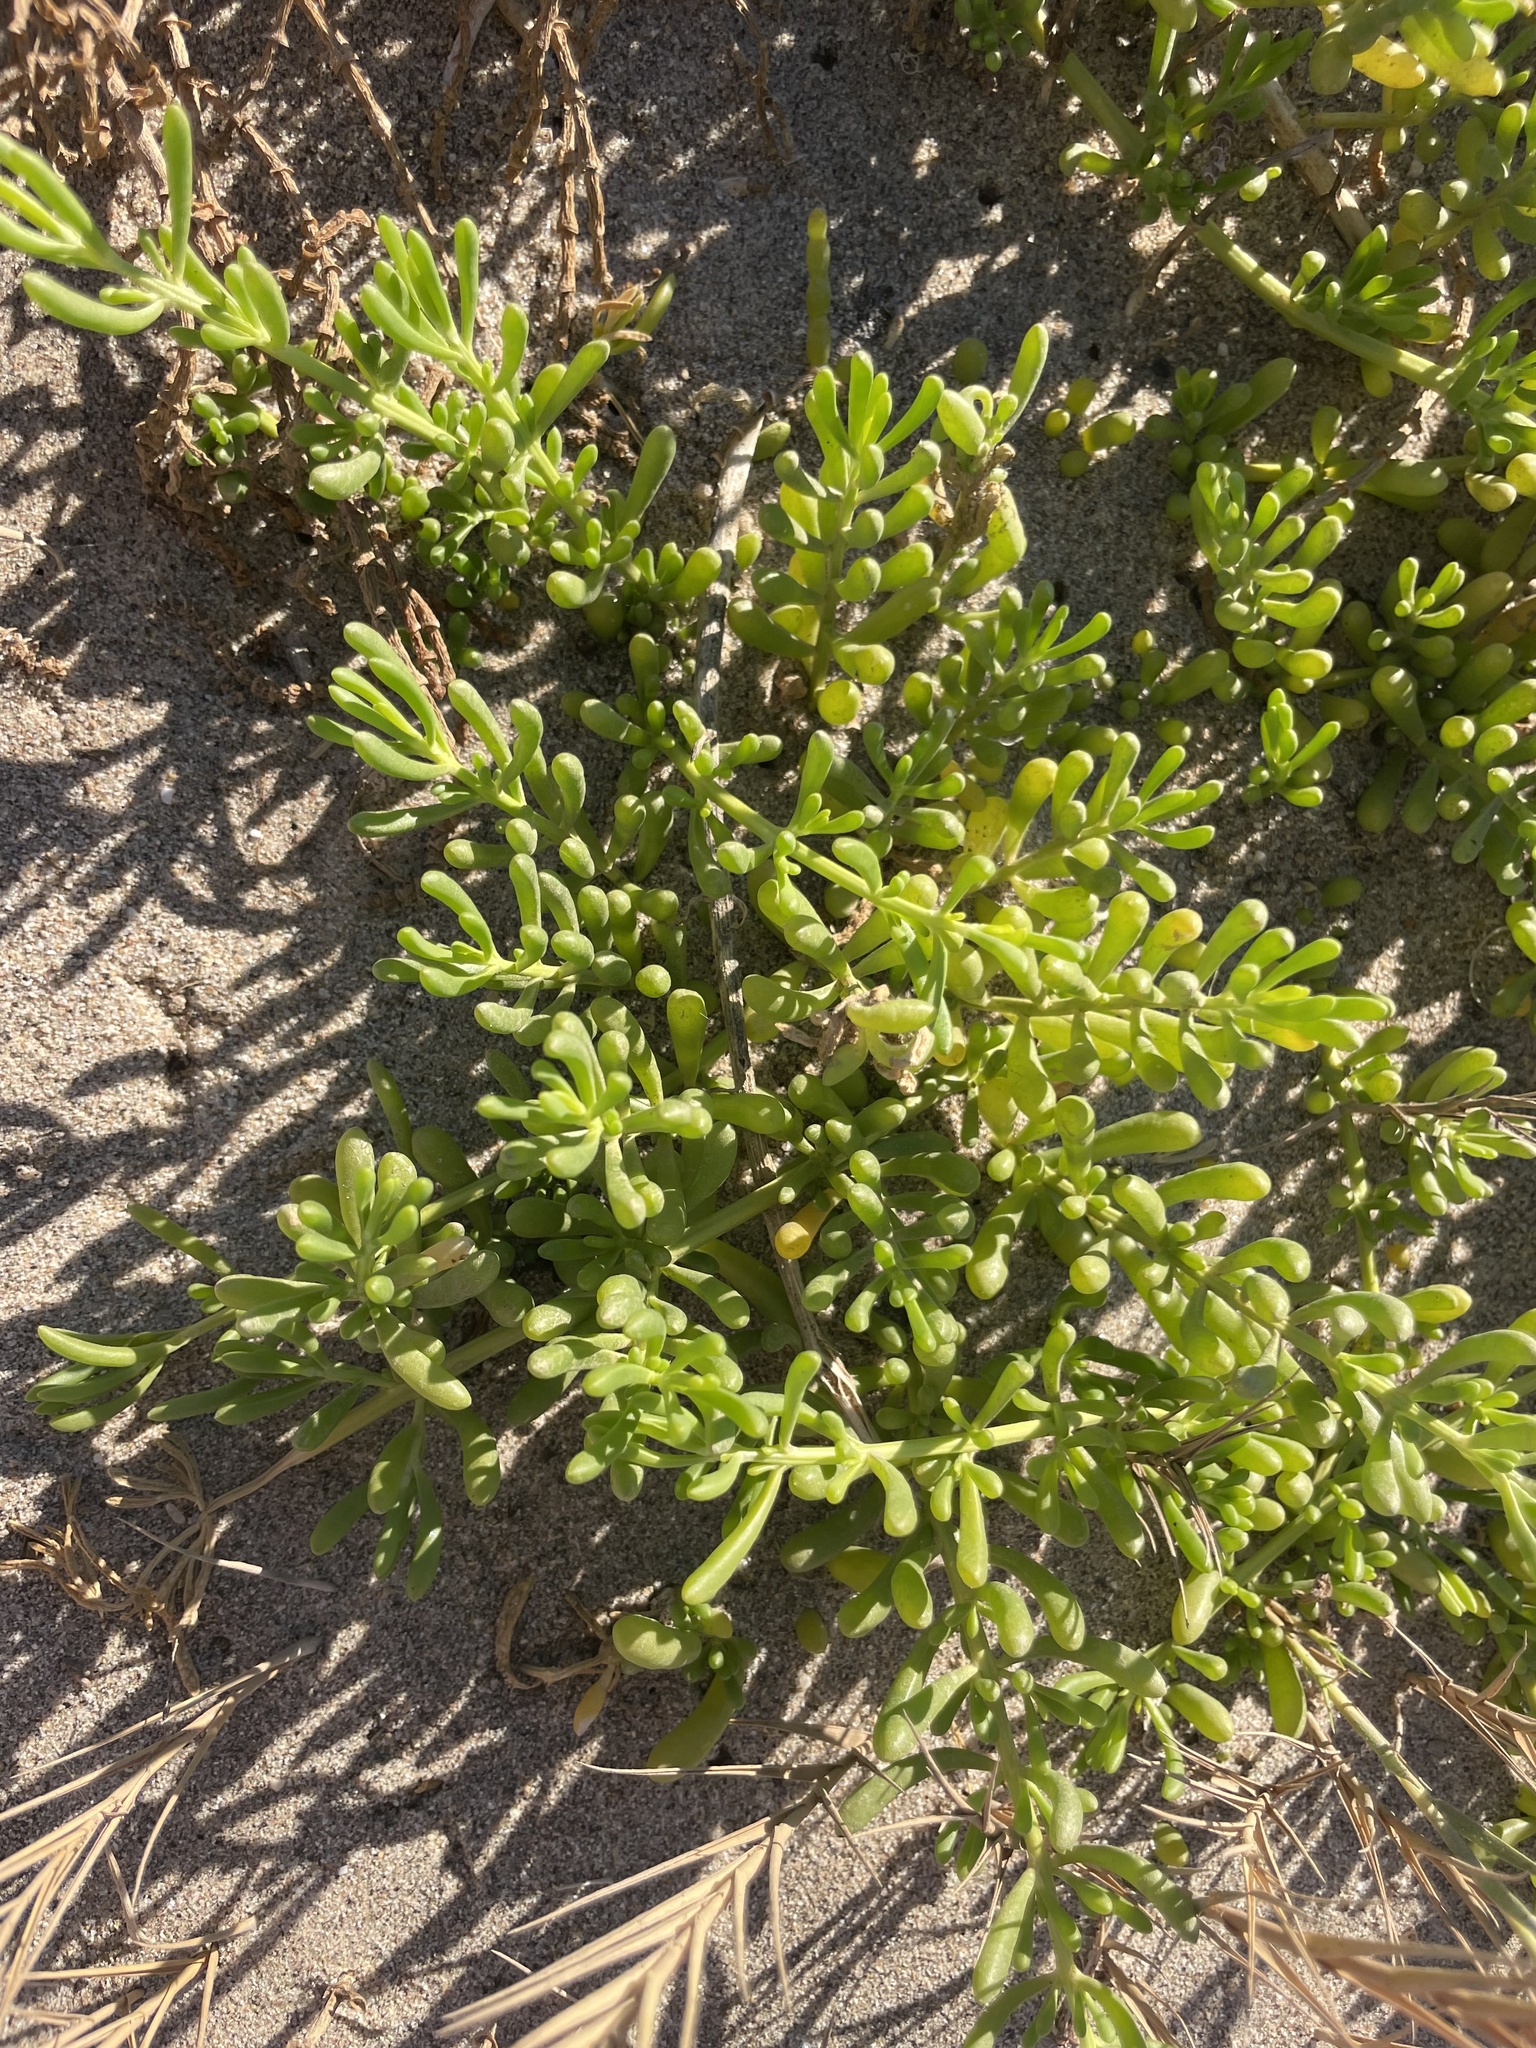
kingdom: Plantae
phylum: Tracheophyta
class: Magnoliopsida
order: Brassicales
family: Bataceae
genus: Batis
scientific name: Batis maritima
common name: Turtleweed
